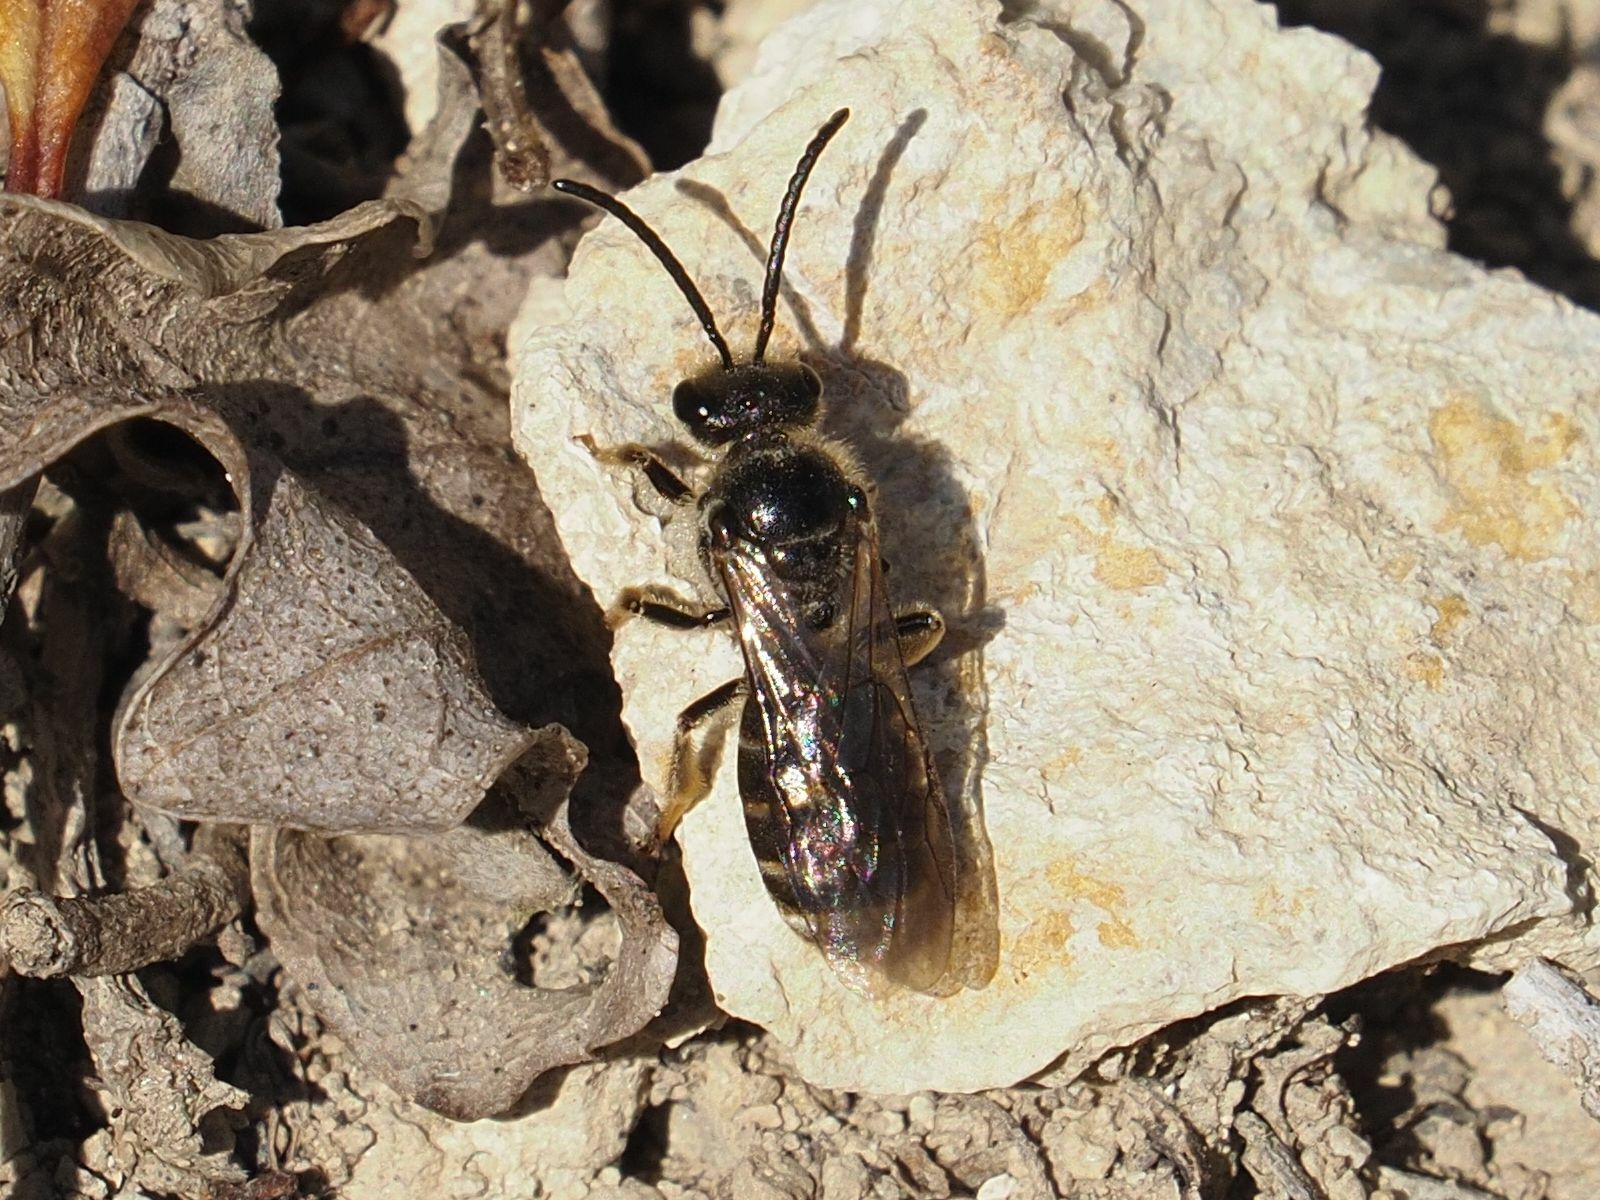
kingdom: Animalia
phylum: Arthropoda
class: Insecta
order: Hymenoptera
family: Halictidae
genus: Lasioglossum
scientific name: Lasioglossum marginatum
